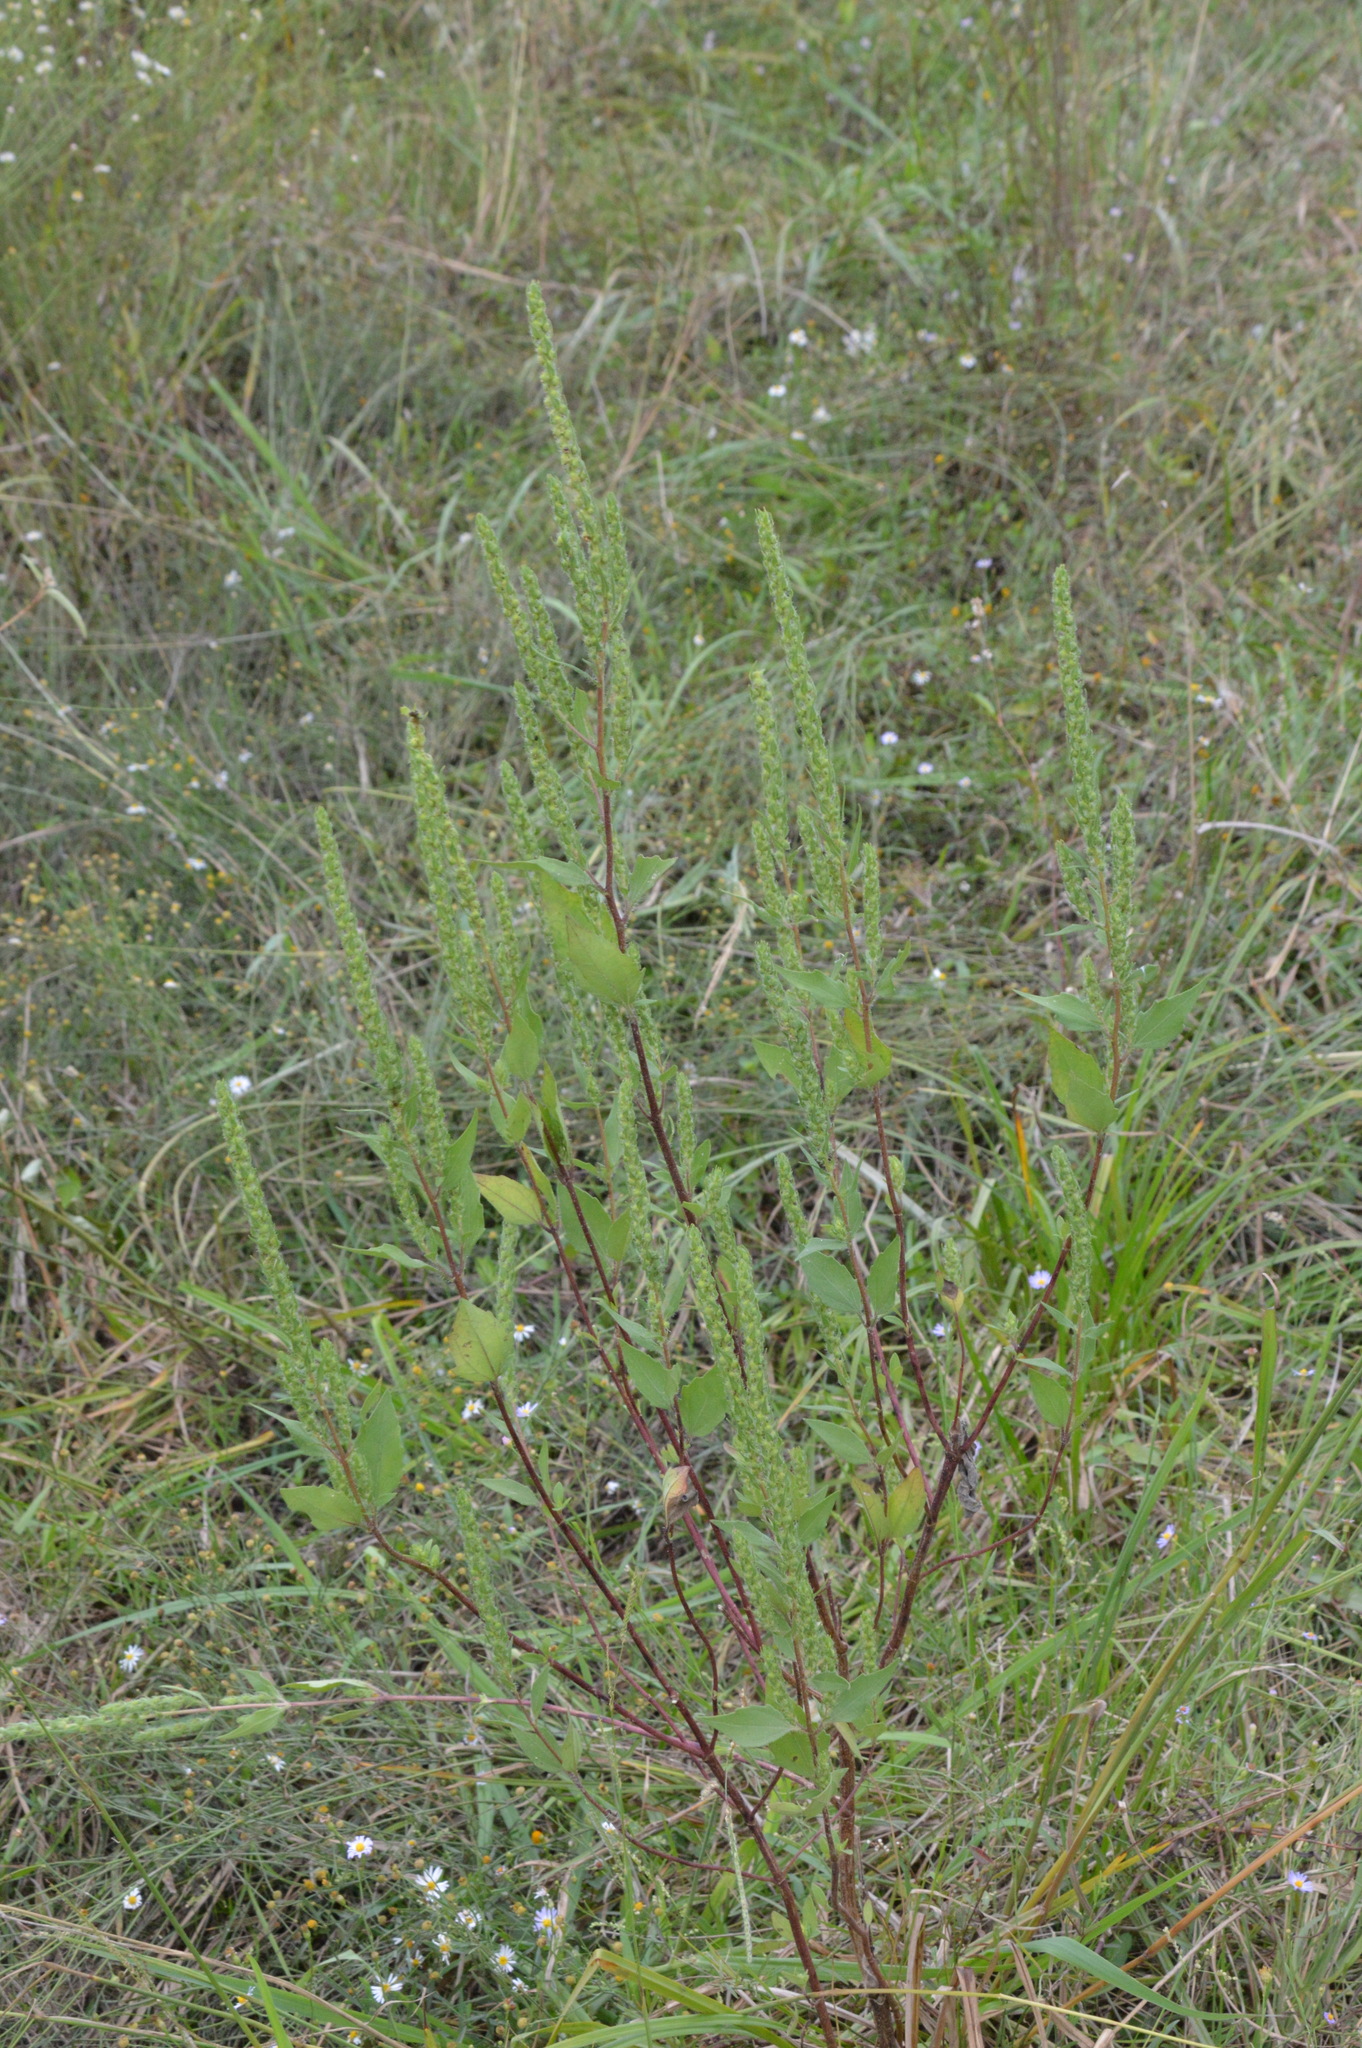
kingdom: Plantae
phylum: Tracheophyta
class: Magnoliopsida
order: Asterales
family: Asteraceae
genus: Iva
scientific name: Iva annua
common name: Marsh-elder
